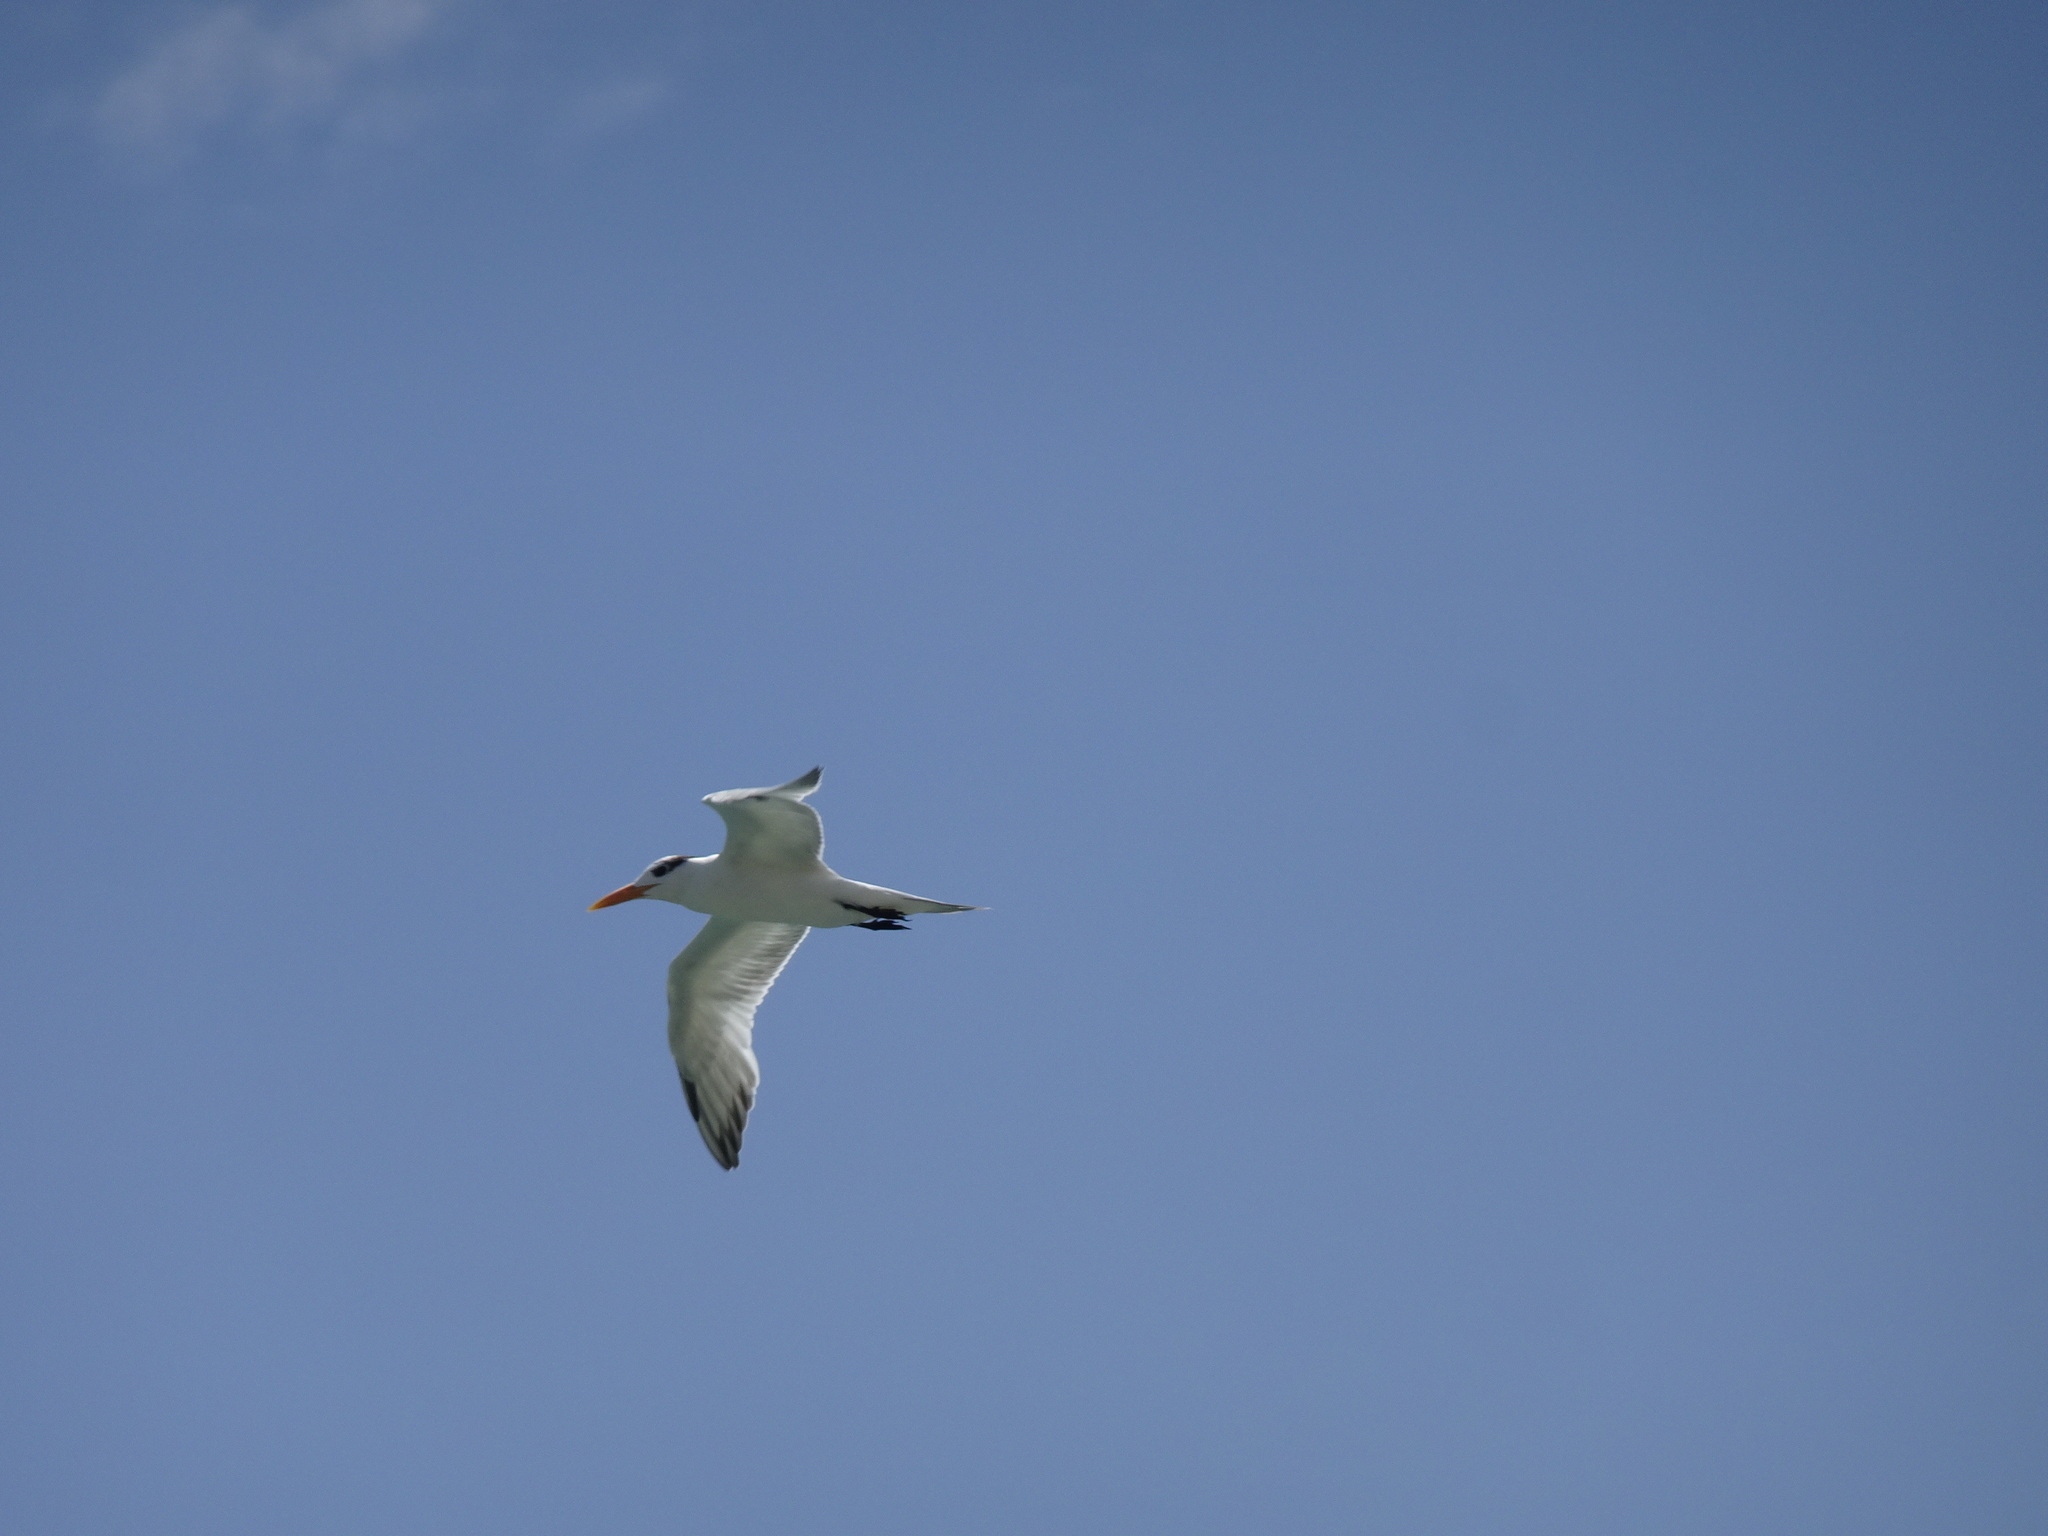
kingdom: Animalia
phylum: Chordata
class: Aves
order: Charadriiformes
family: Laridae
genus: Thalasseus
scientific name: Thalasseus maximus
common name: Royal tern
